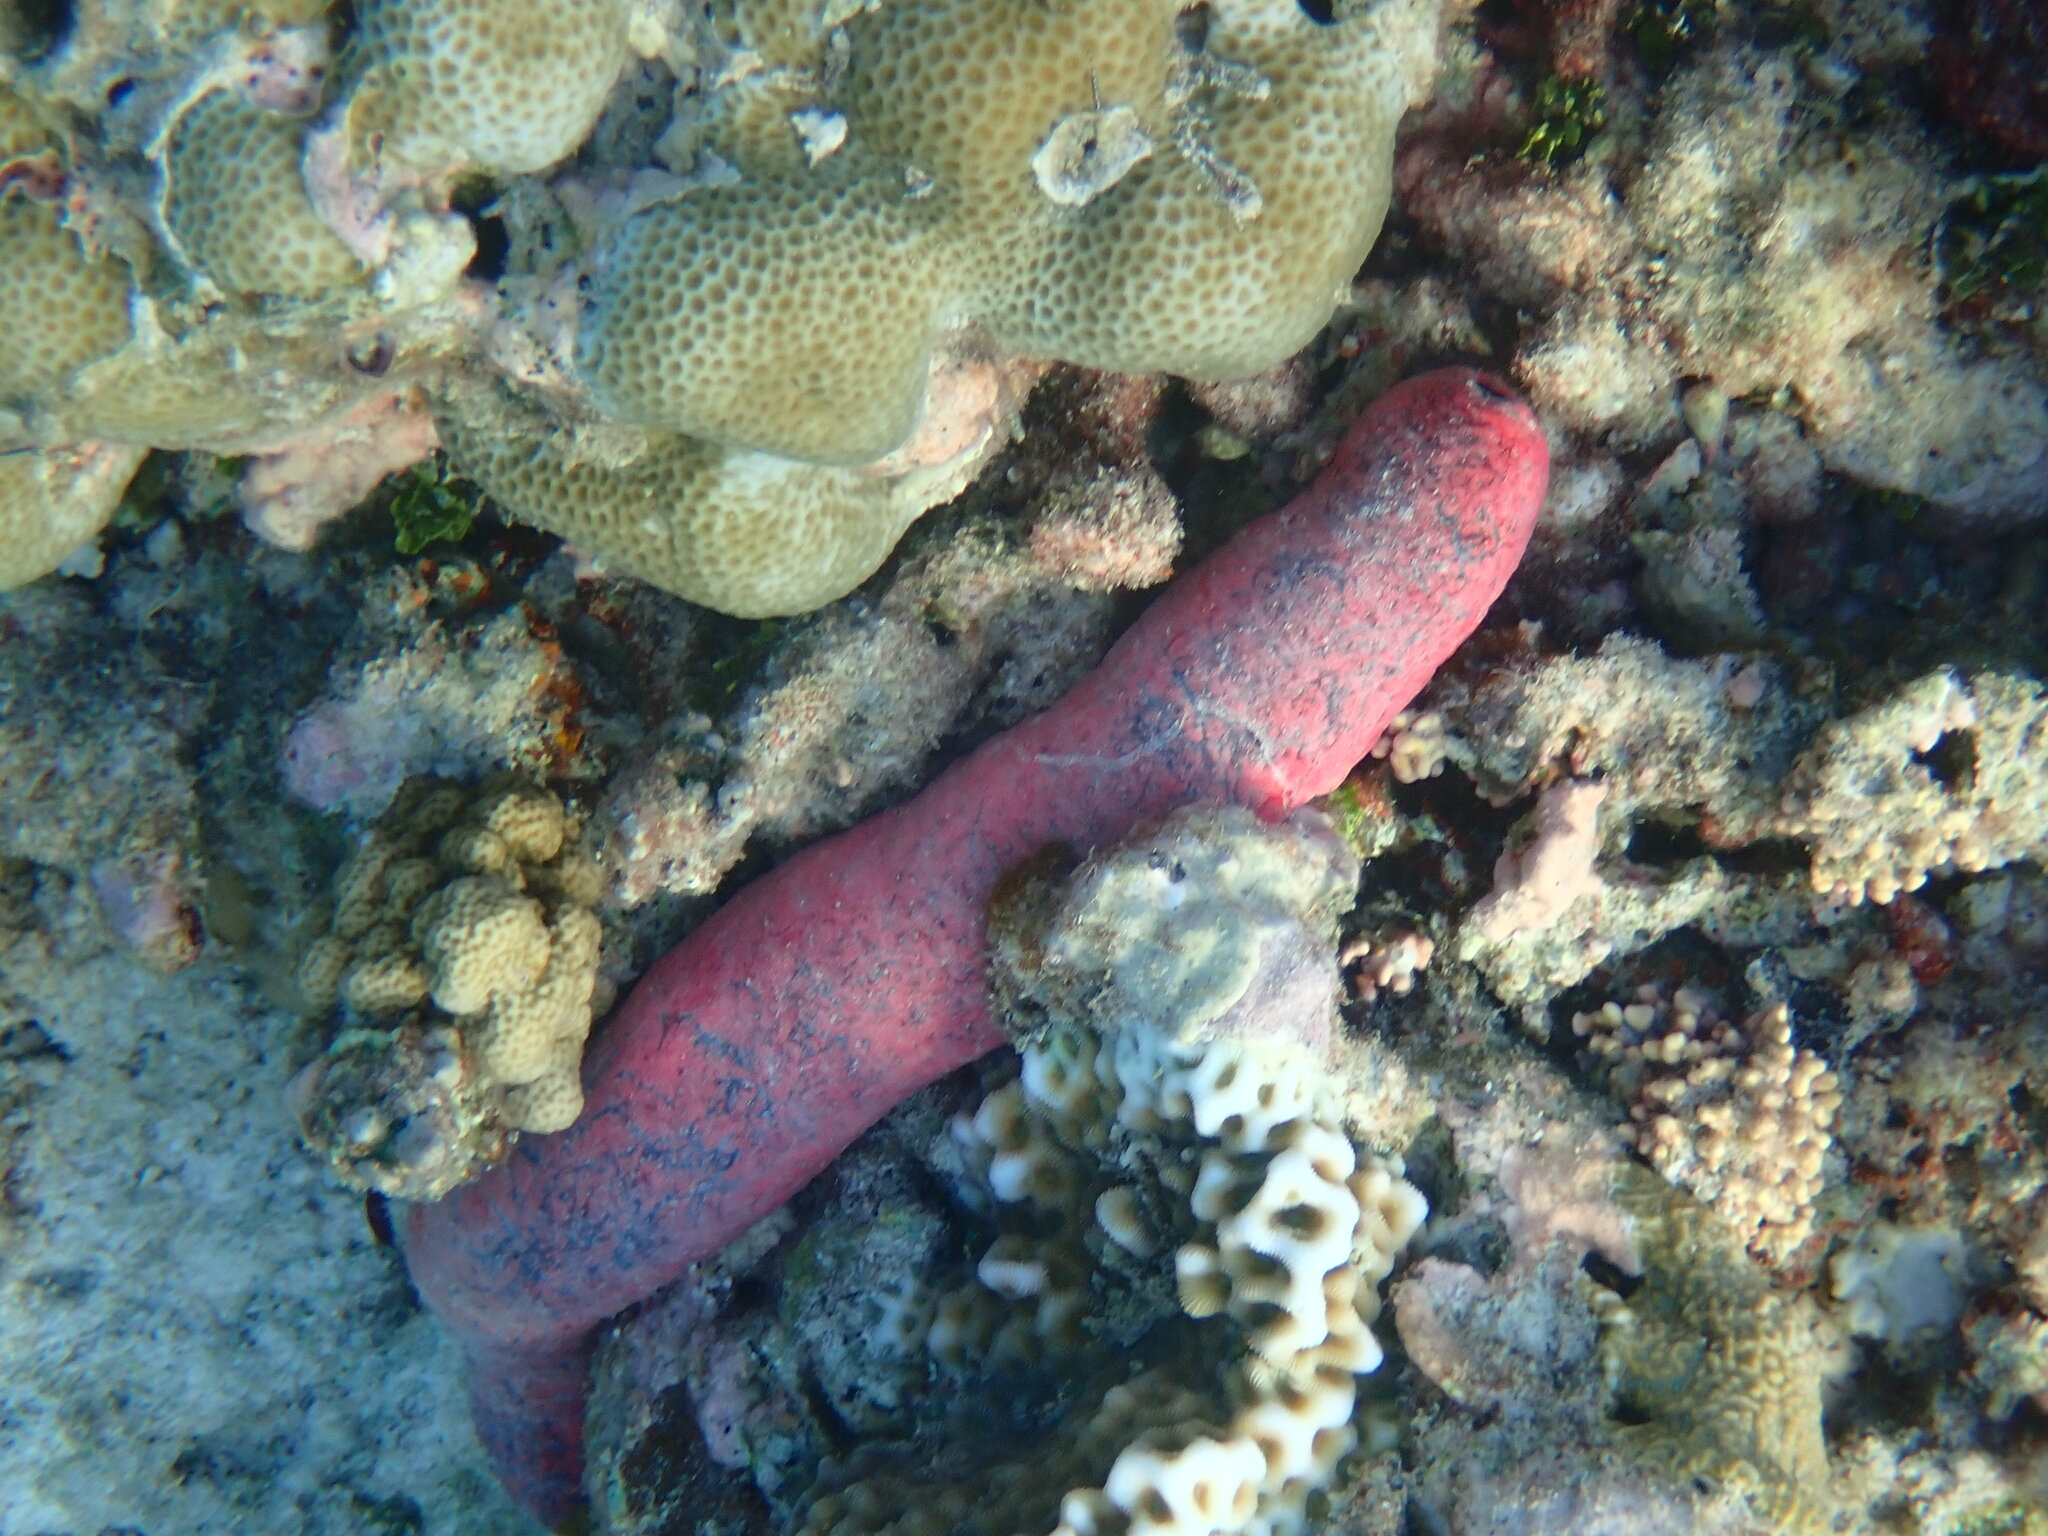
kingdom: Animalia
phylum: Echinodermata
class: Holothuroidea
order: Holothuriida
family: Holothuriidae
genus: Holothuria
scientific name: Holothuria edulis
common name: Pinkfish
